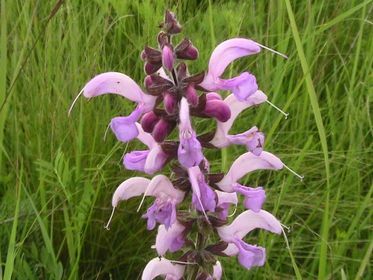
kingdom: Plantae
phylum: Tracheophyta
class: Magnoliopsida
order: Lamiales
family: Lamiaceae
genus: Salvia
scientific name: Salvia pratensis
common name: Meadow sage
